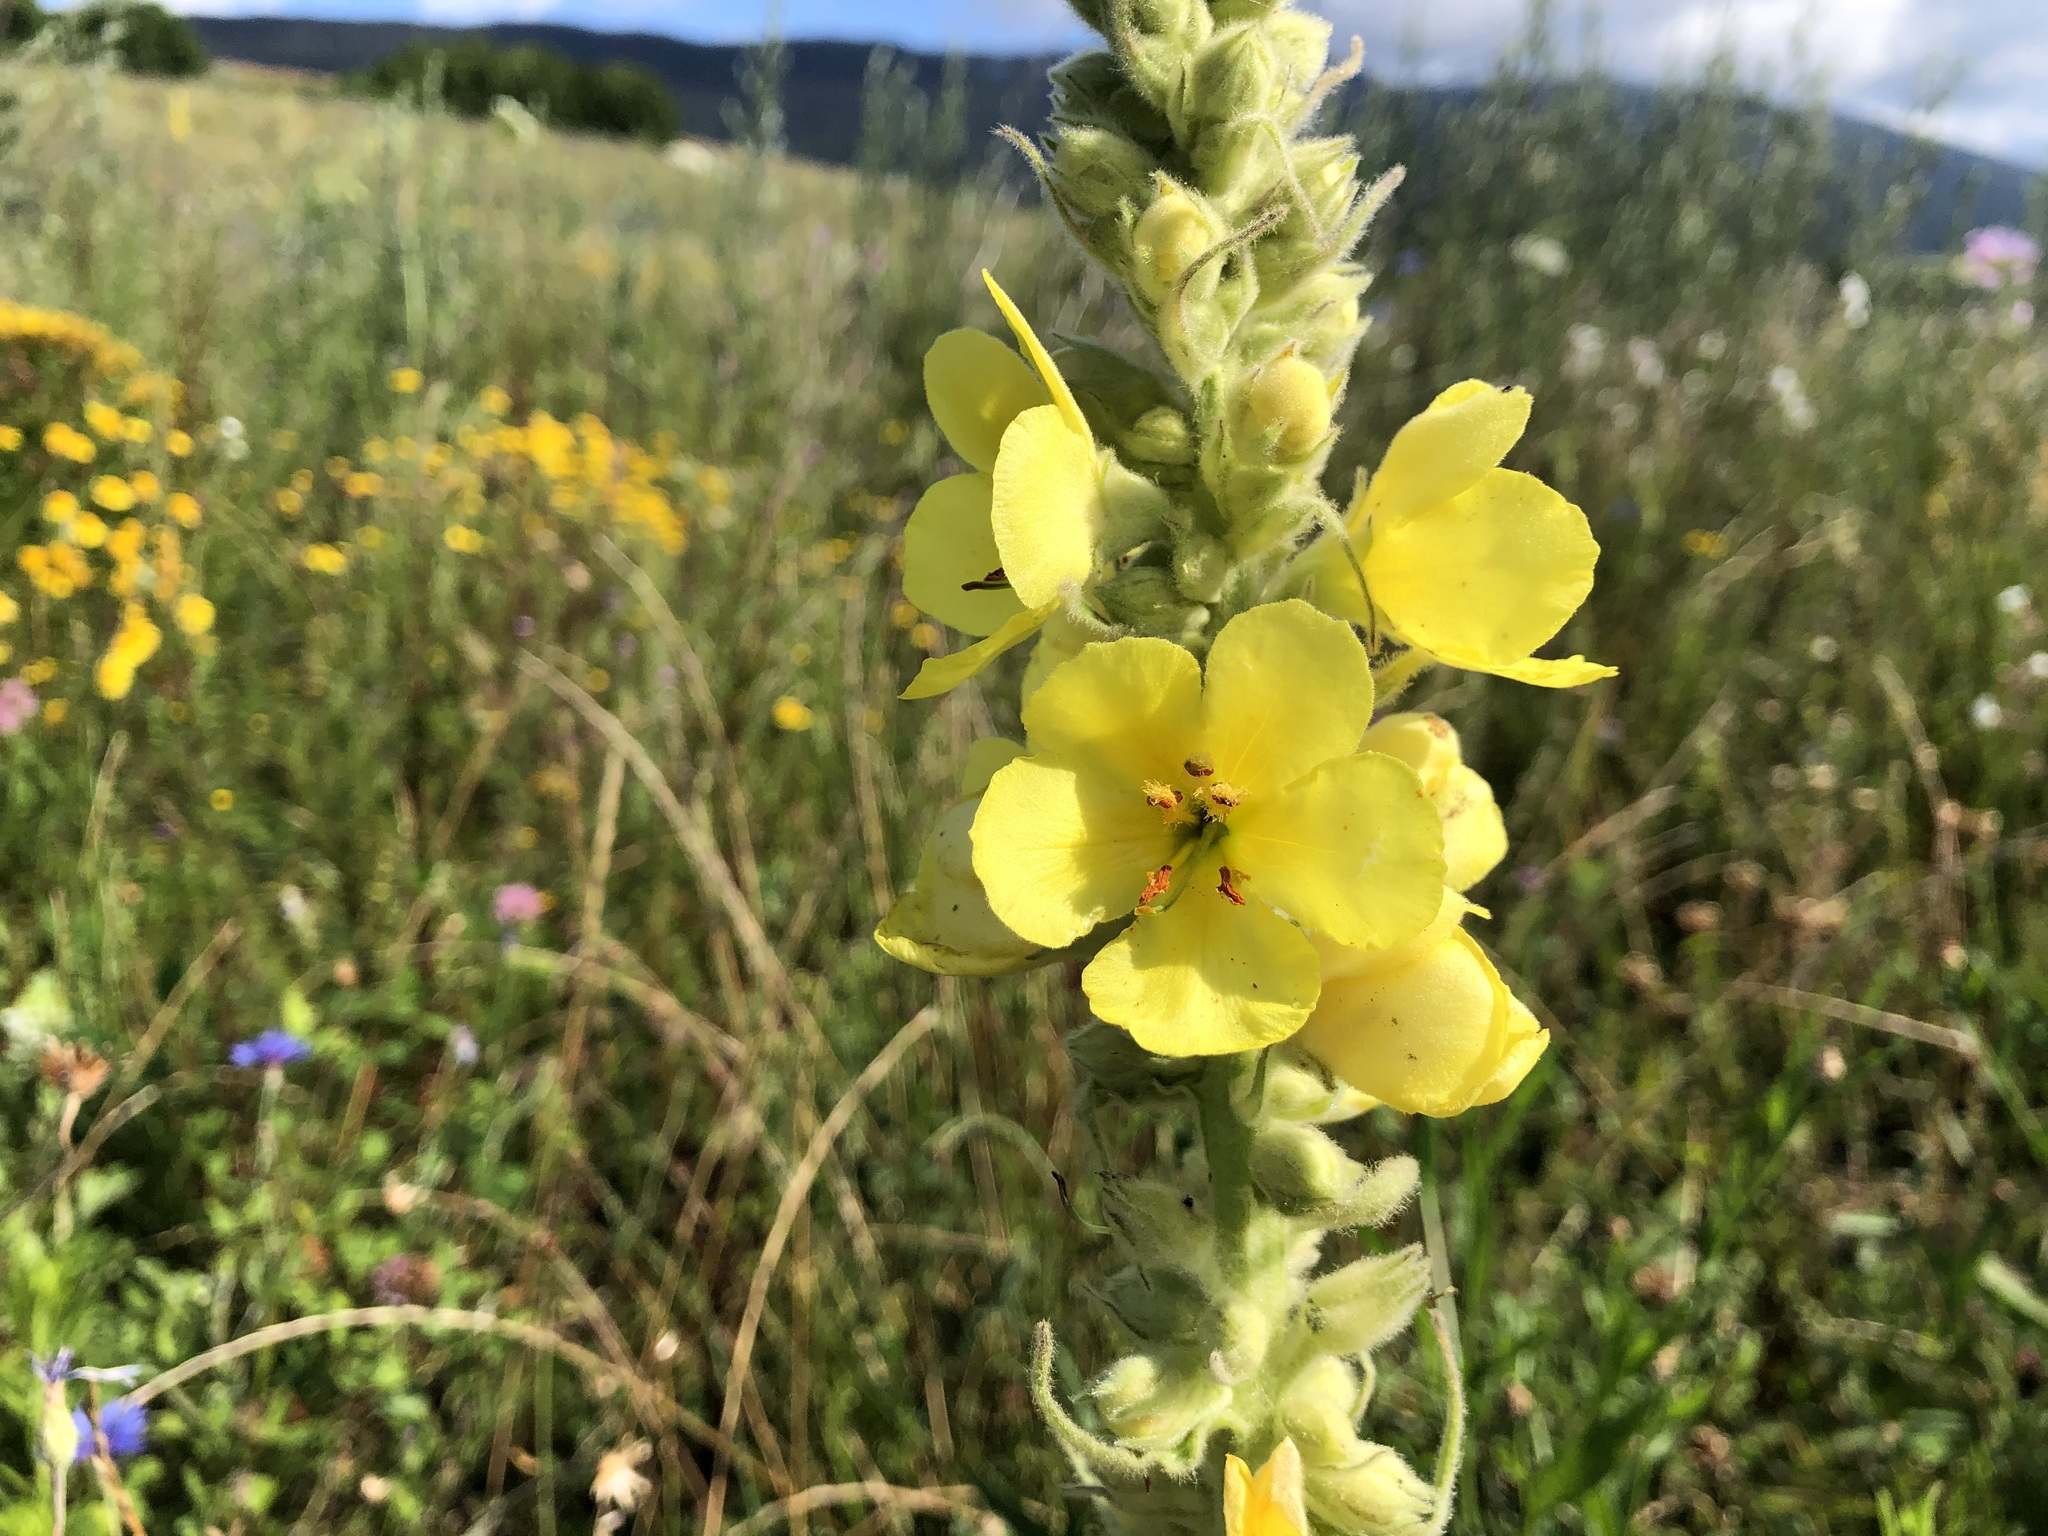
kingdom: Plantae
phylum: Tracheophyta
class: Magnoliopsida
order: Lamiales
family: Scrophulariaceae
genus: Verbascum
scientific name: Verbascum densiflorum
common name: Dense-flowered mullein
